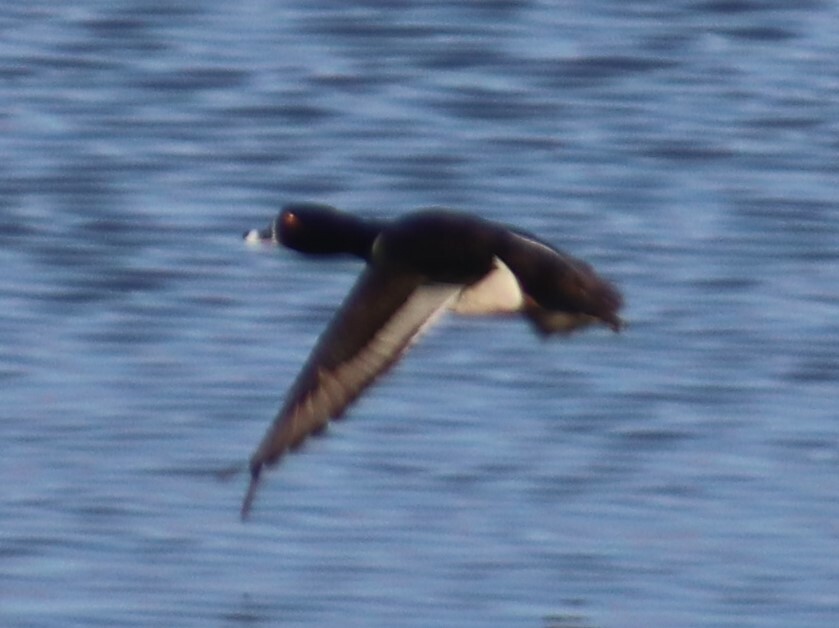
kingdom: Animalia
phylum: Chordata
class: Aves
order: Anseriformes
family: Anatidae
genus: Aythya
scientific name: Aythya collaris
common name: Ring-necked duck
